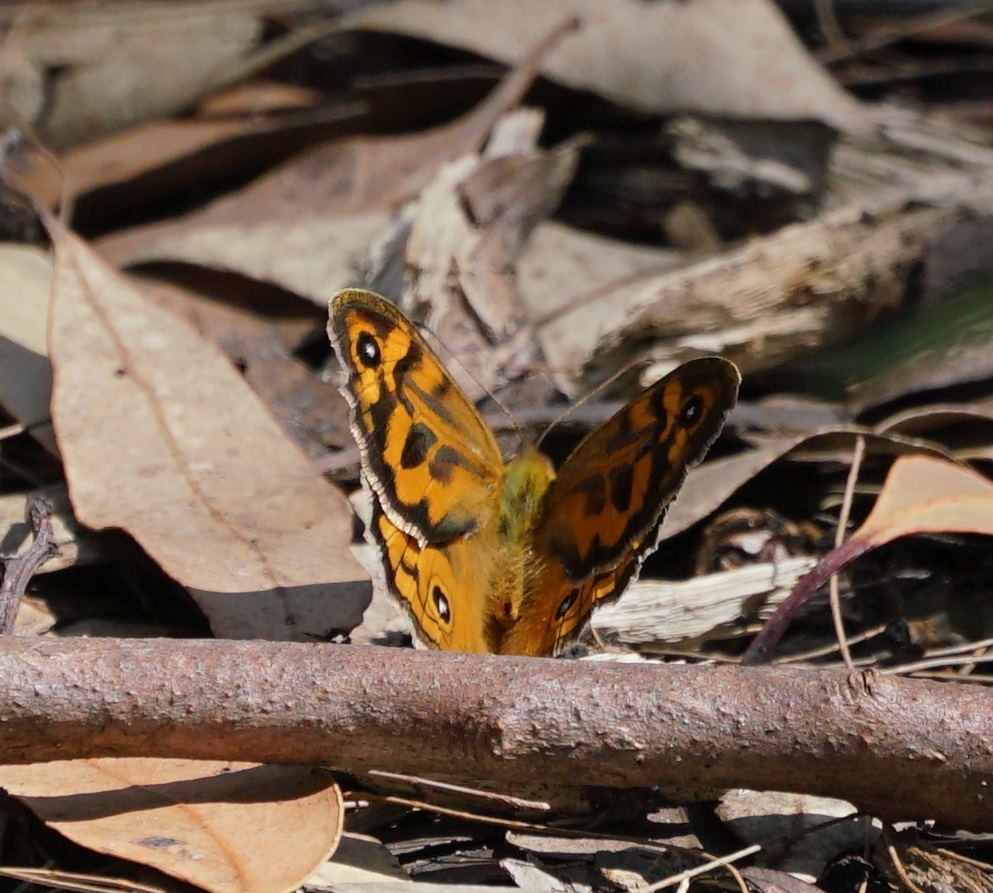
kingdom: Animalia
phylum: Arthropoda
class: Insecta
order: Lepidoptera
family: Nymphalidae
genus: Heteronympha
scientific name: Heteronympha merope
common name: Common brown
